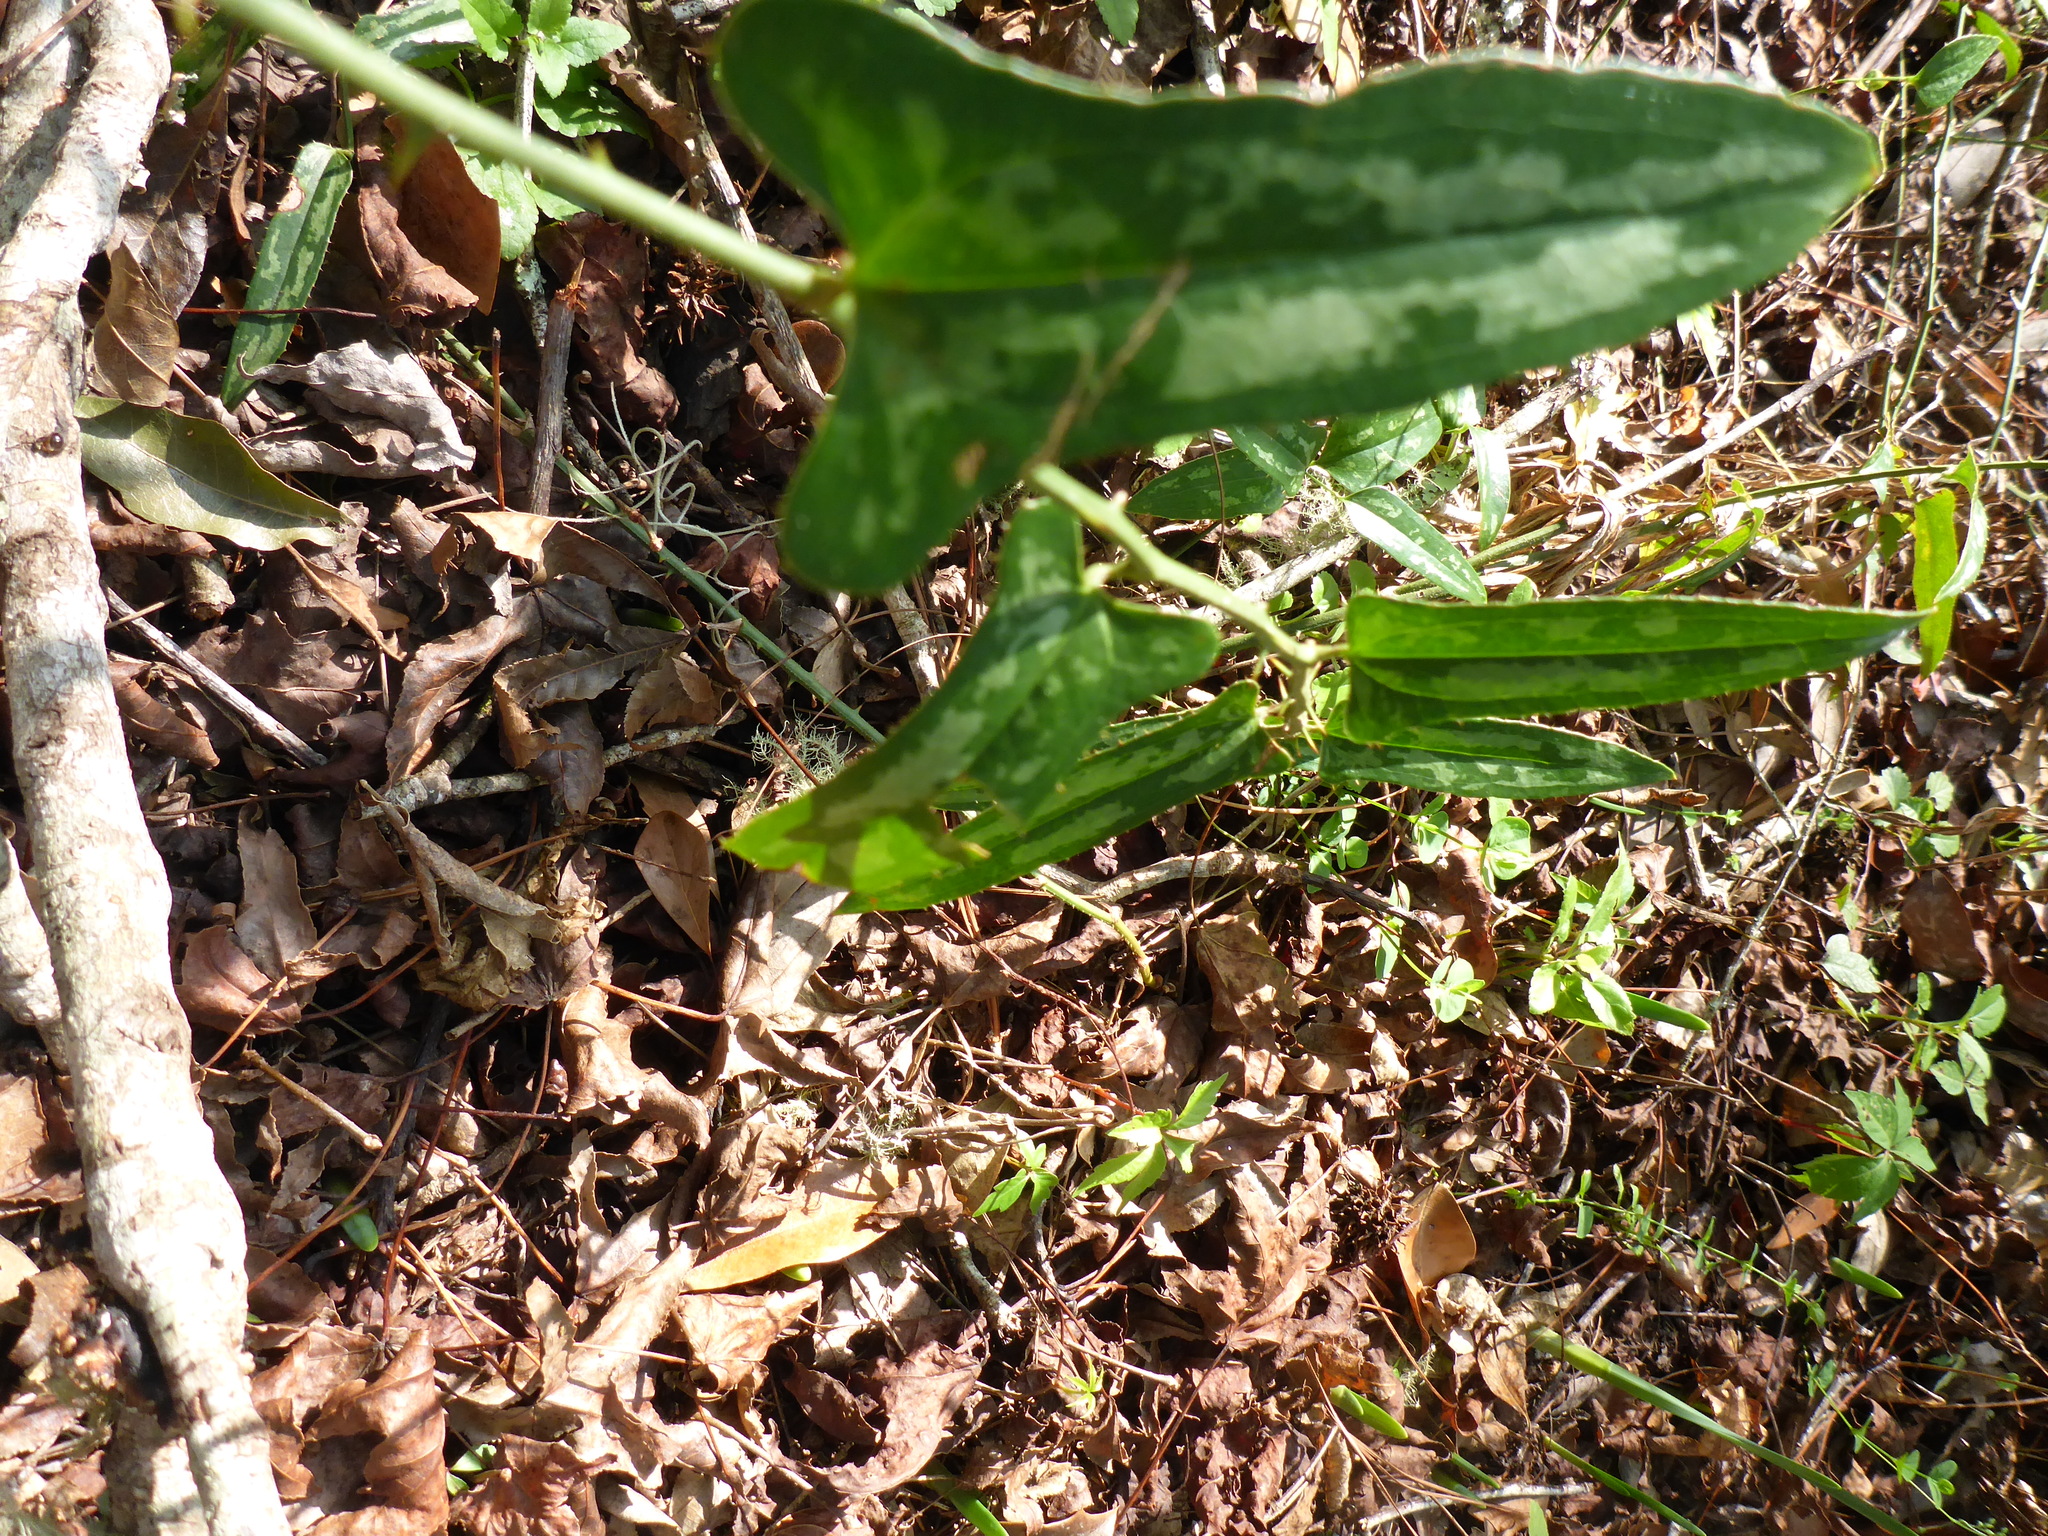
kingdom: Plantae
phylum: Tracheophyta
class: Liliopsida
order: Liliales
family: Smilacaceae
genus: Smilax
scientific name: Smilax bona-nox
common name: Catbrier
